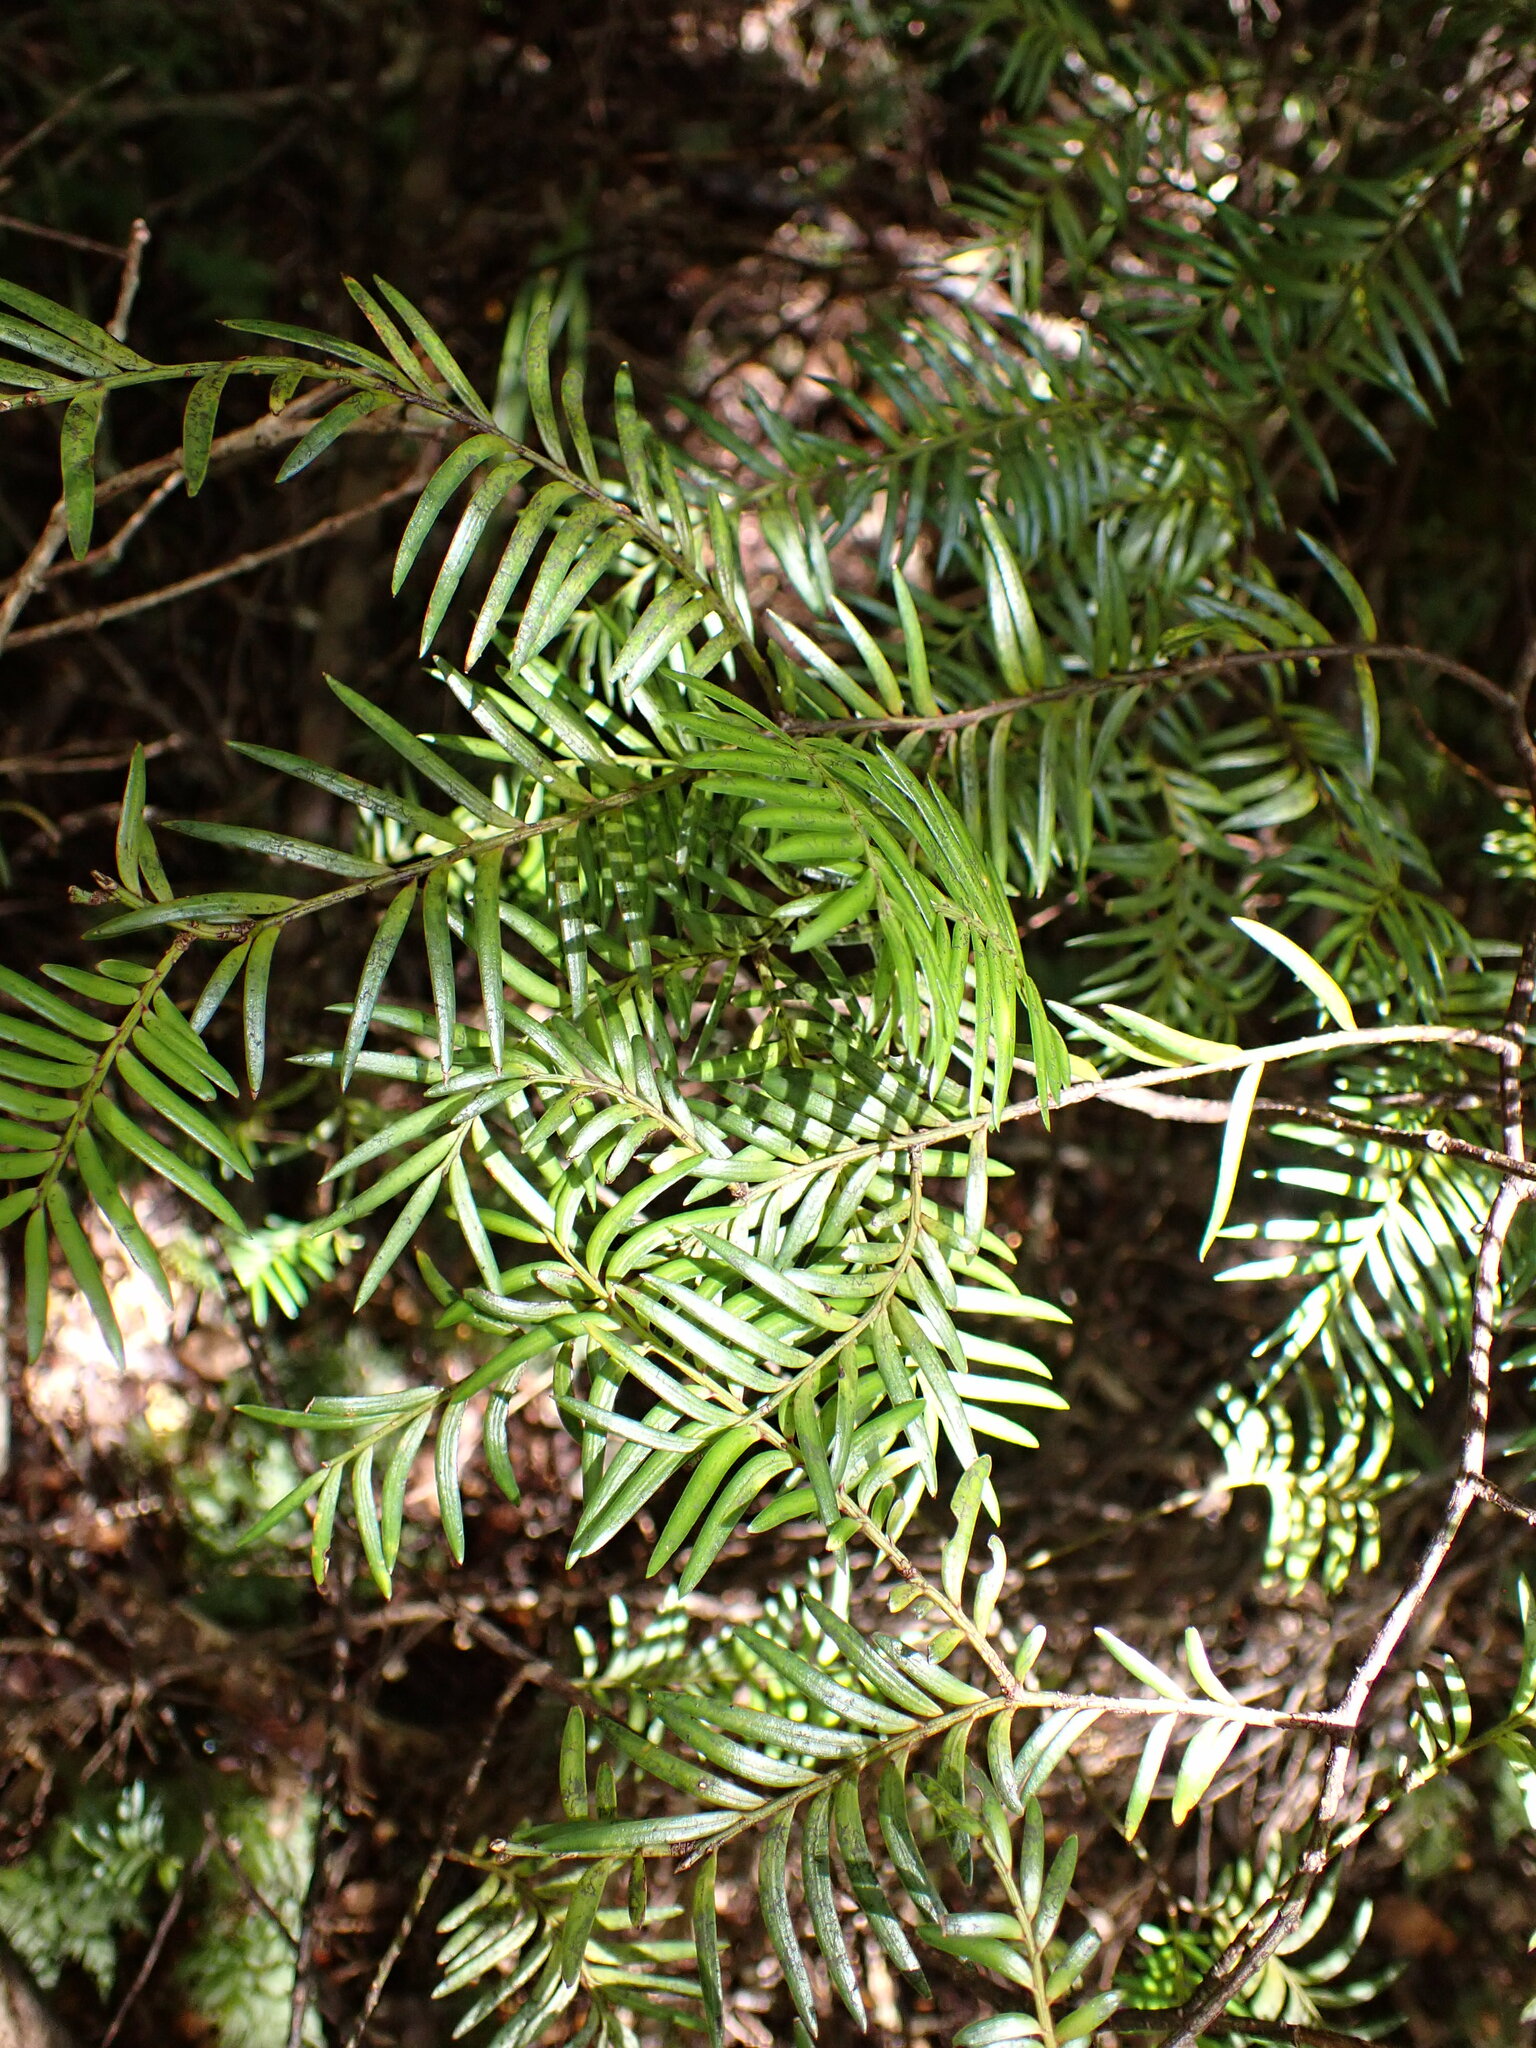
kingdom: Plantae
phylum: Tracheophyta
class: Pinopsida
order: Pinales
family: Podocarpaceae
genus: Prumnopitys
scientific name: Prumnopitys ferruginea
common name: Brown pine
